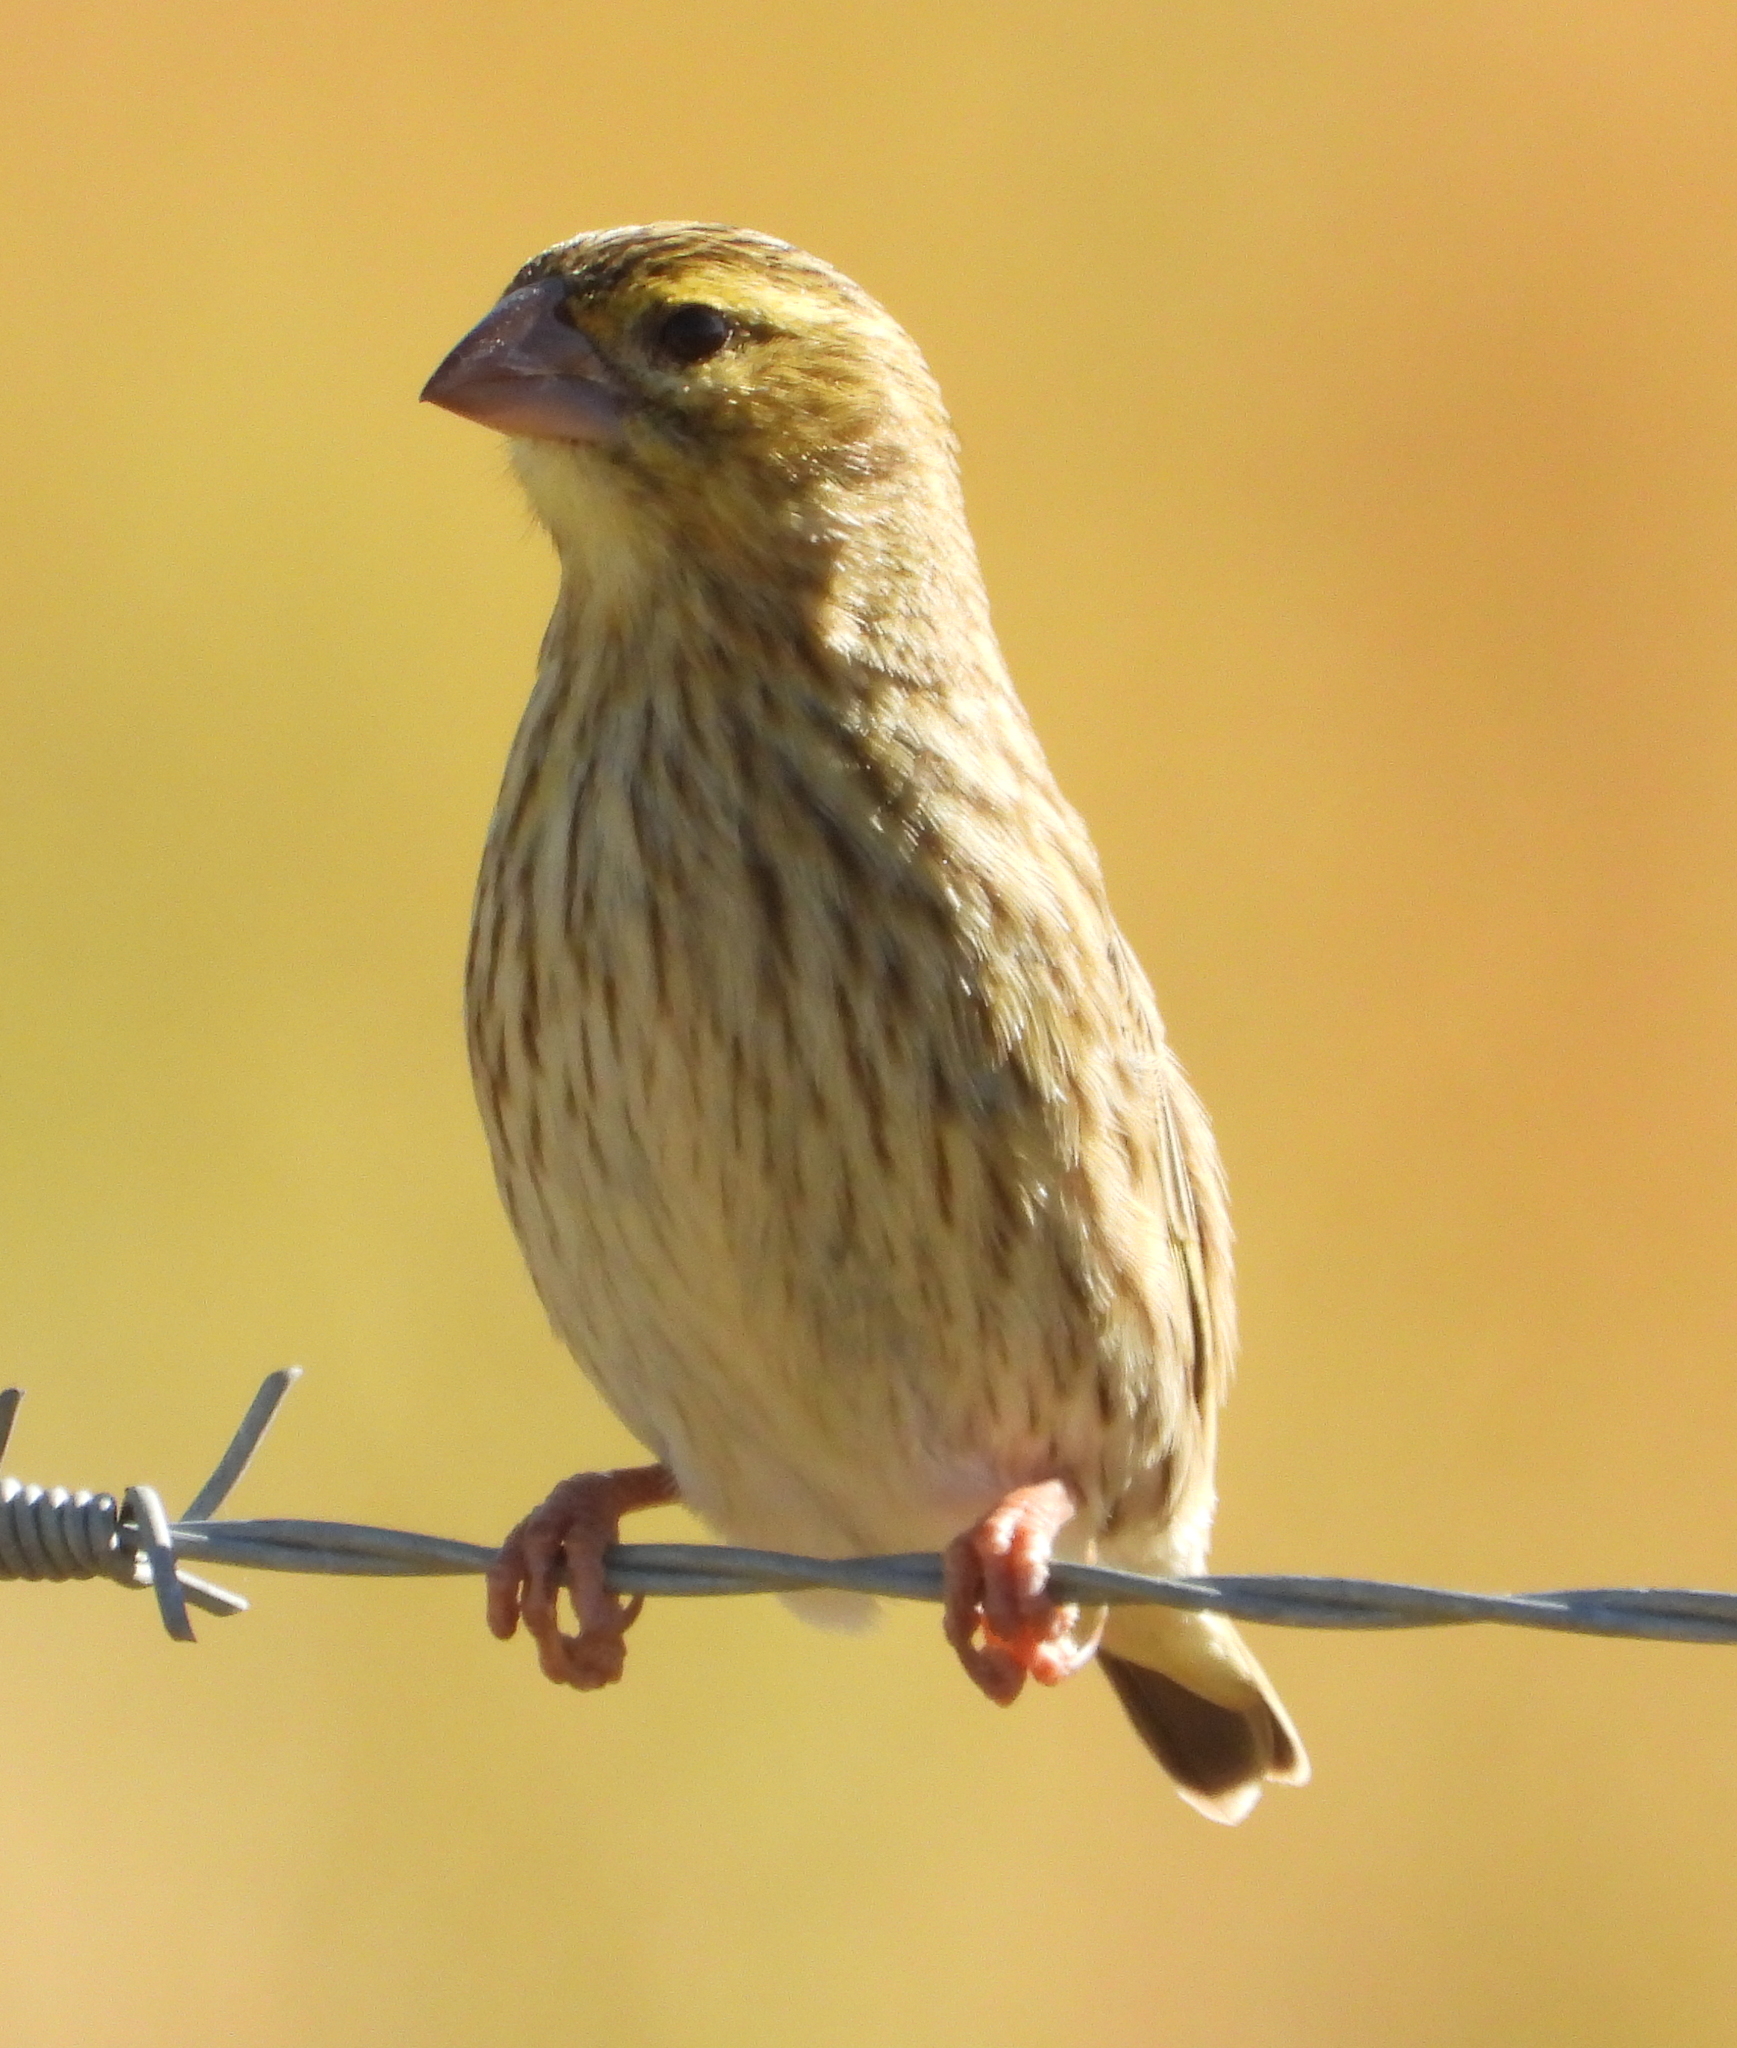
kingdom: Animalia
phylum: Chordata
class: Aves
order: Passeriformes
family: Ploceidae
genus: Euplectes
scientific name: Euplectes orix
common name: Southern red bishop
